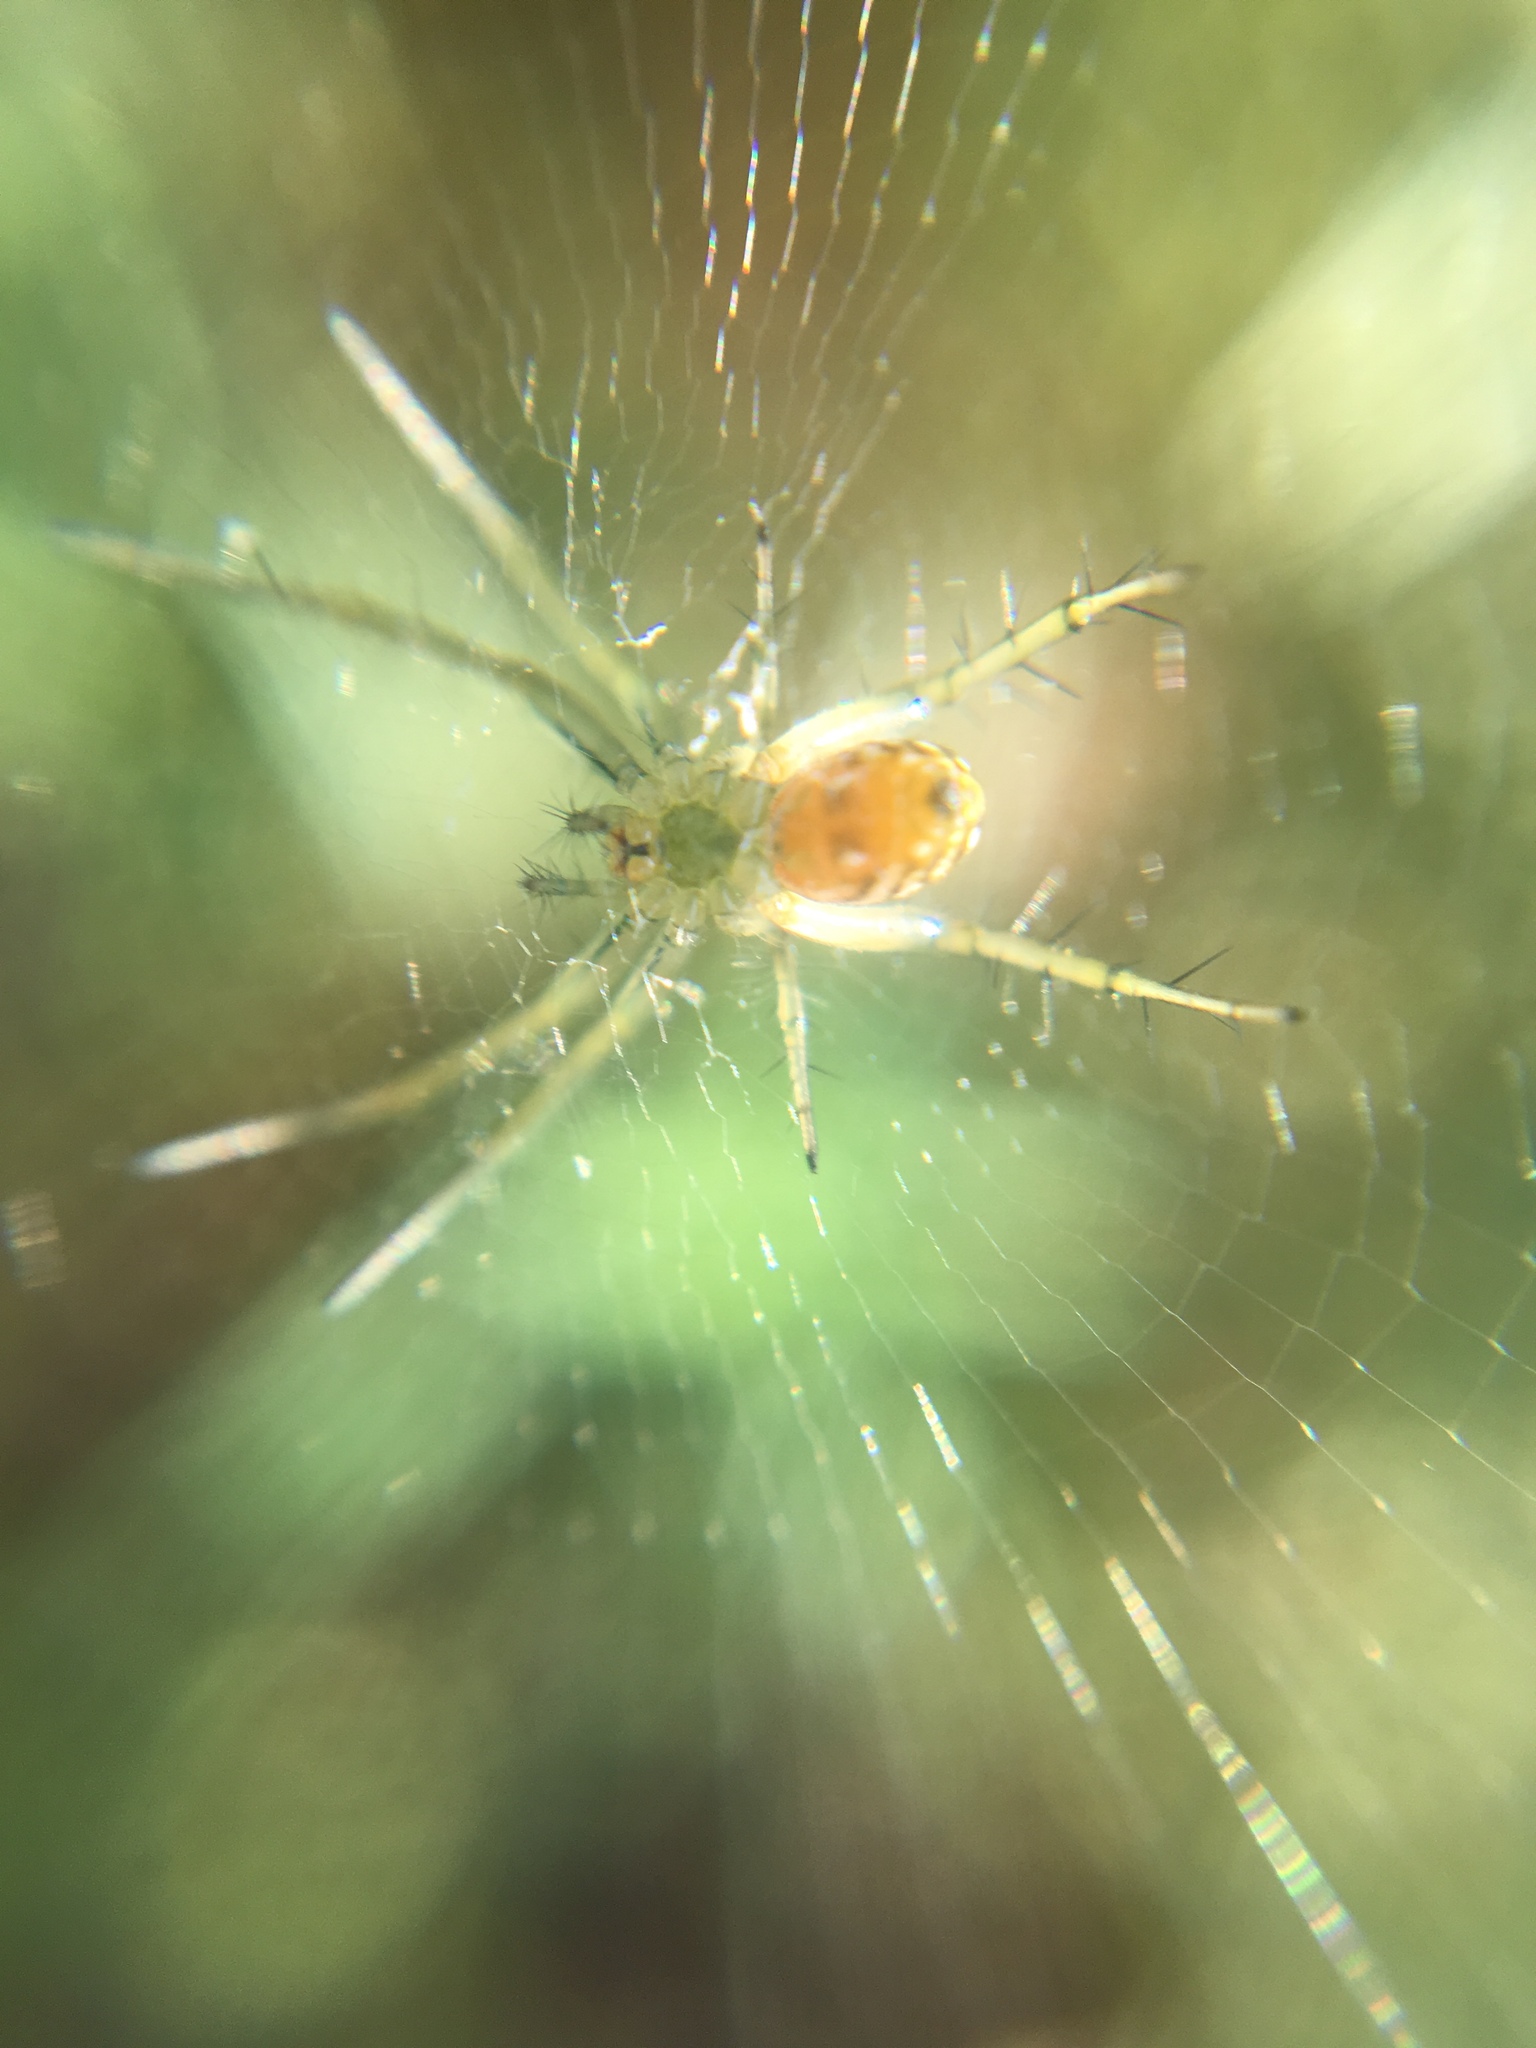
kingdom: Animalia
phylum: Arthropoda
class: Arachnida
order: Araneae
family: Araneidae
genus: Mangora
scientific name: Mangora gibberosa
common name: Lined orbweaver
